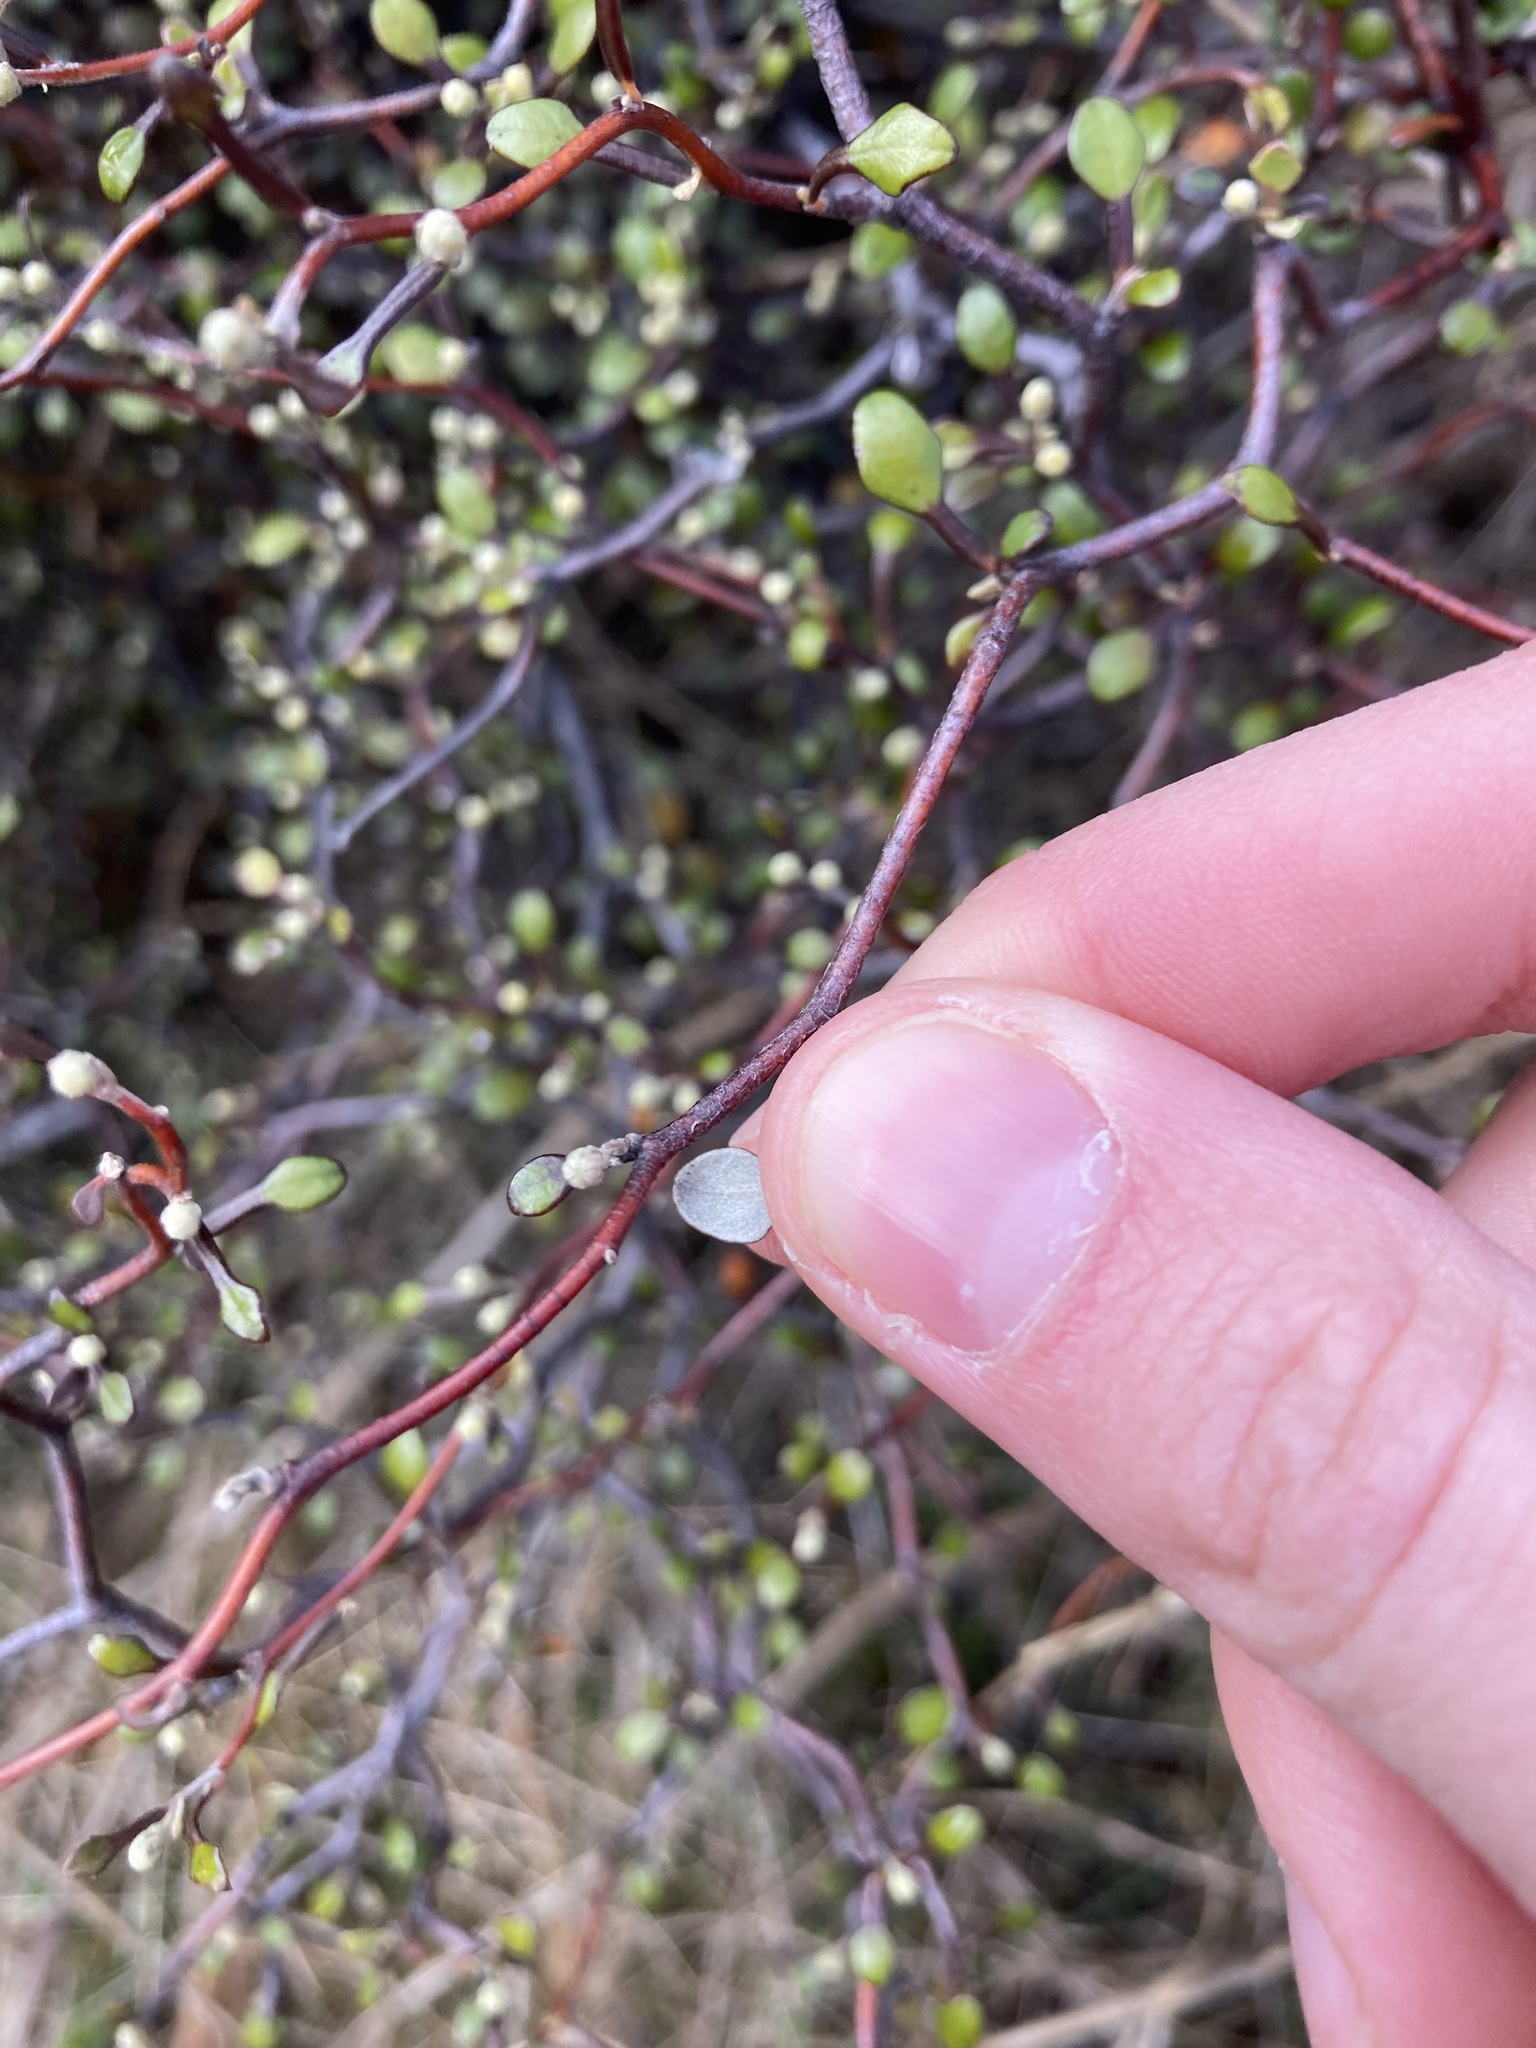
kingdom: Plantae
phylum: Tracheophyta
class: Magnoliopsida
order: Asterales
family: Argophyllaceae
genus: Corokia
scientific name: Corokia cotoneaster
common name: Wire nettingbush
